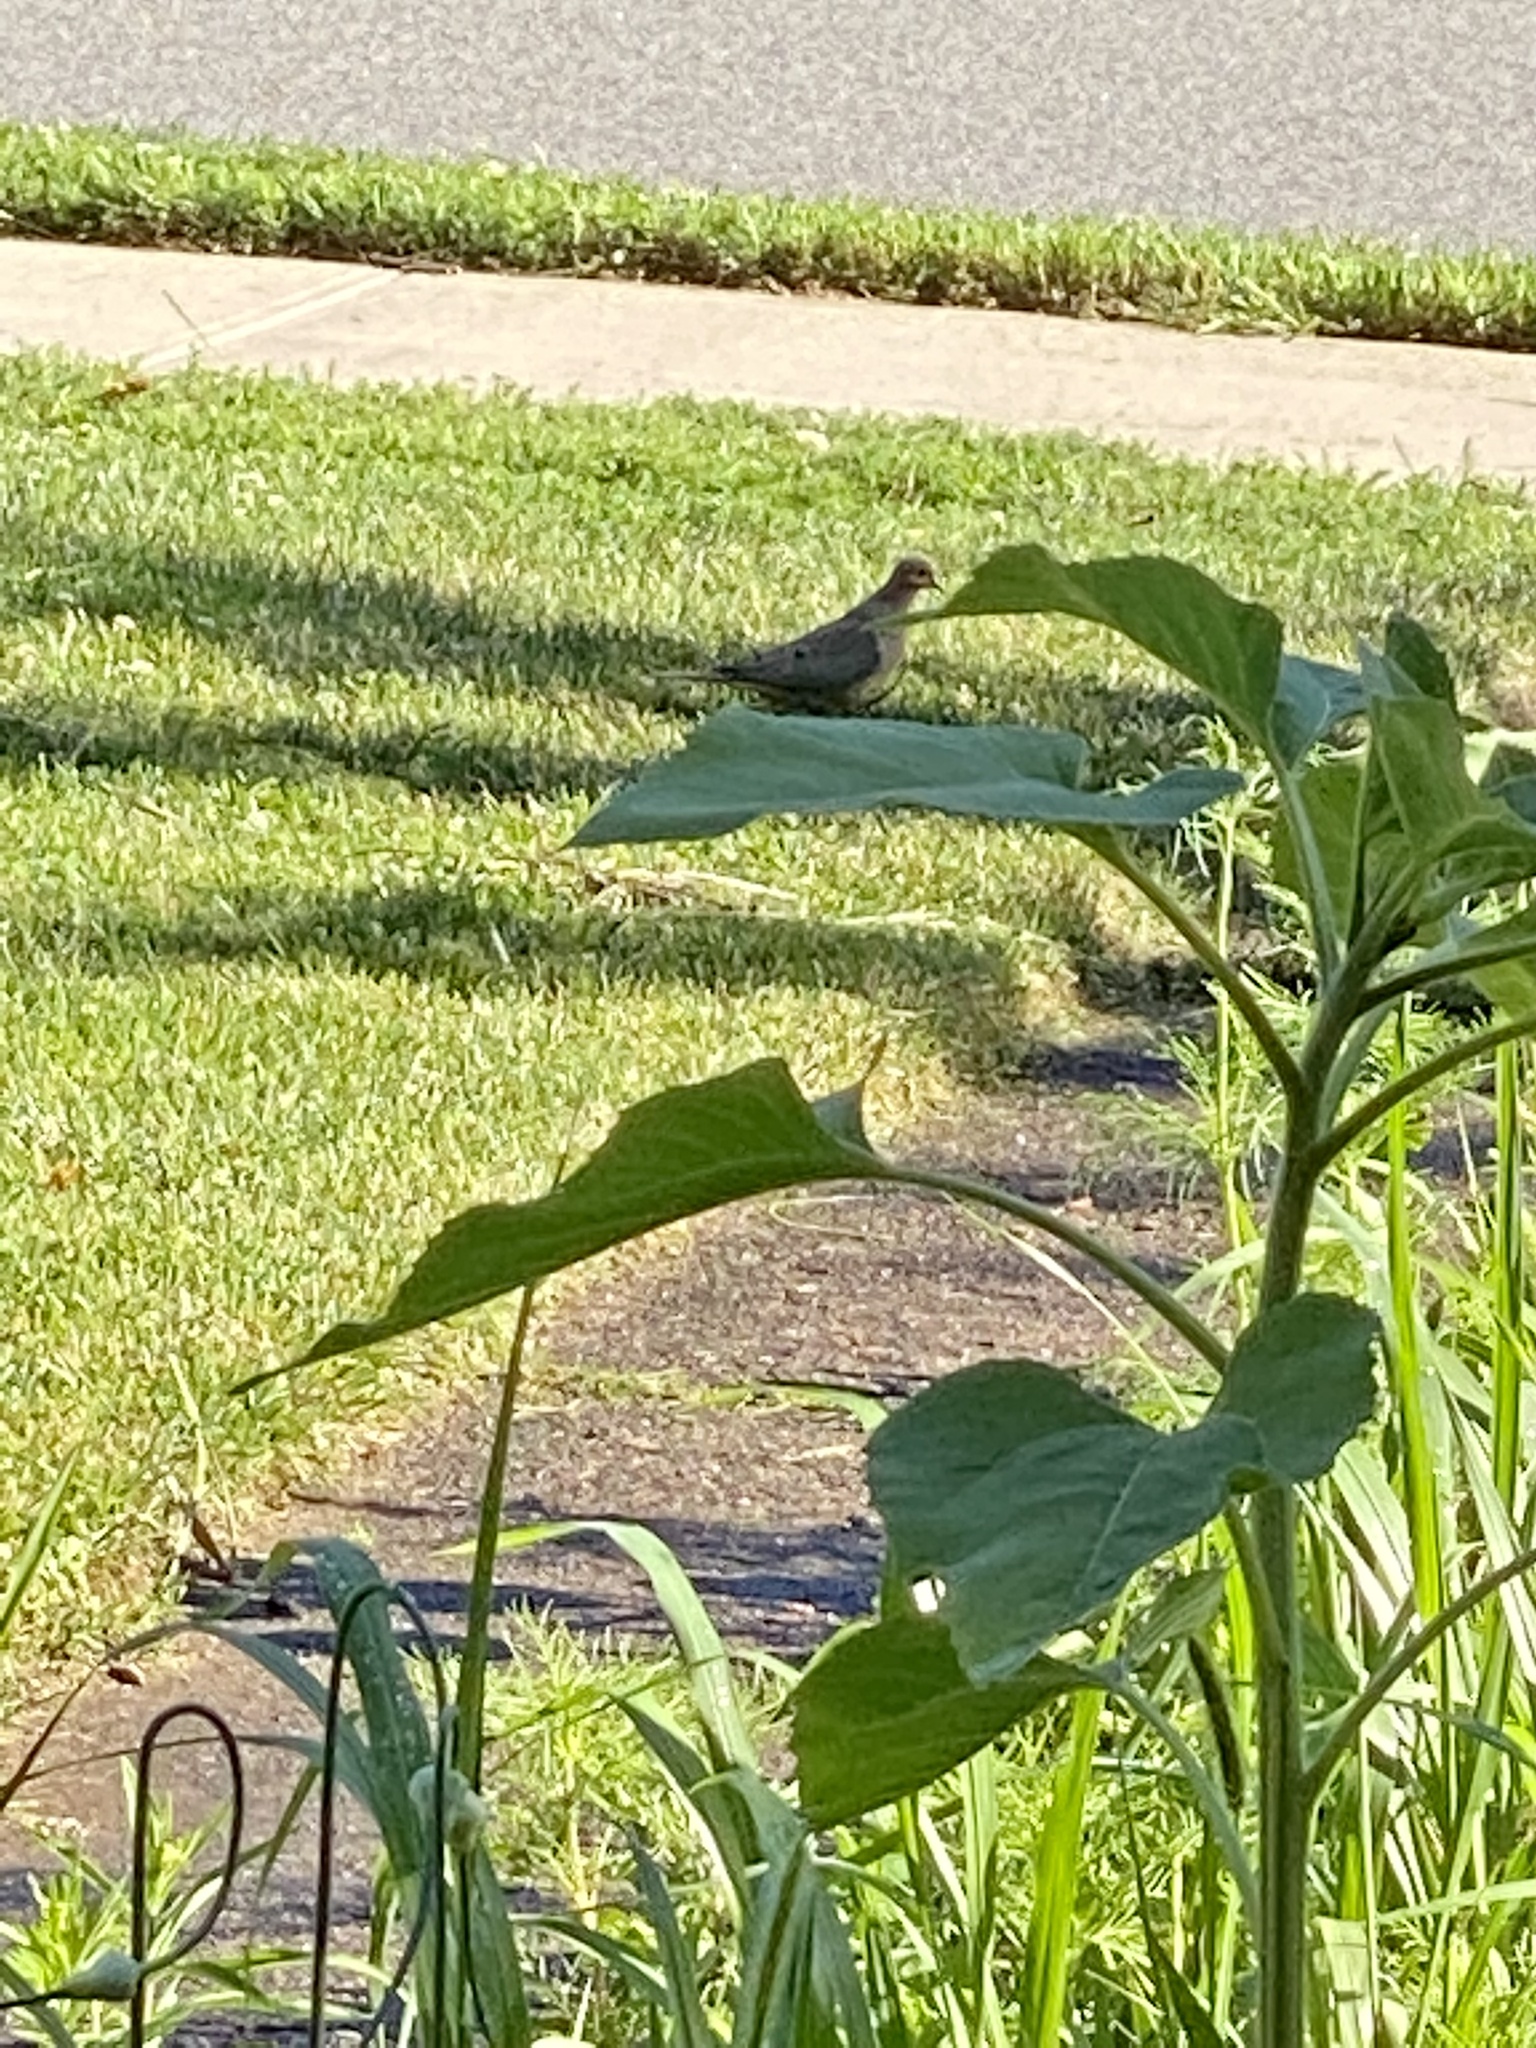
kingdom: Animalia
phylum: Chordata
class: Aves
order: Columbiformes
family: Columbidae
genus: Zenaida
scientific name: Zenaida macroura
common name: Mourning dove
